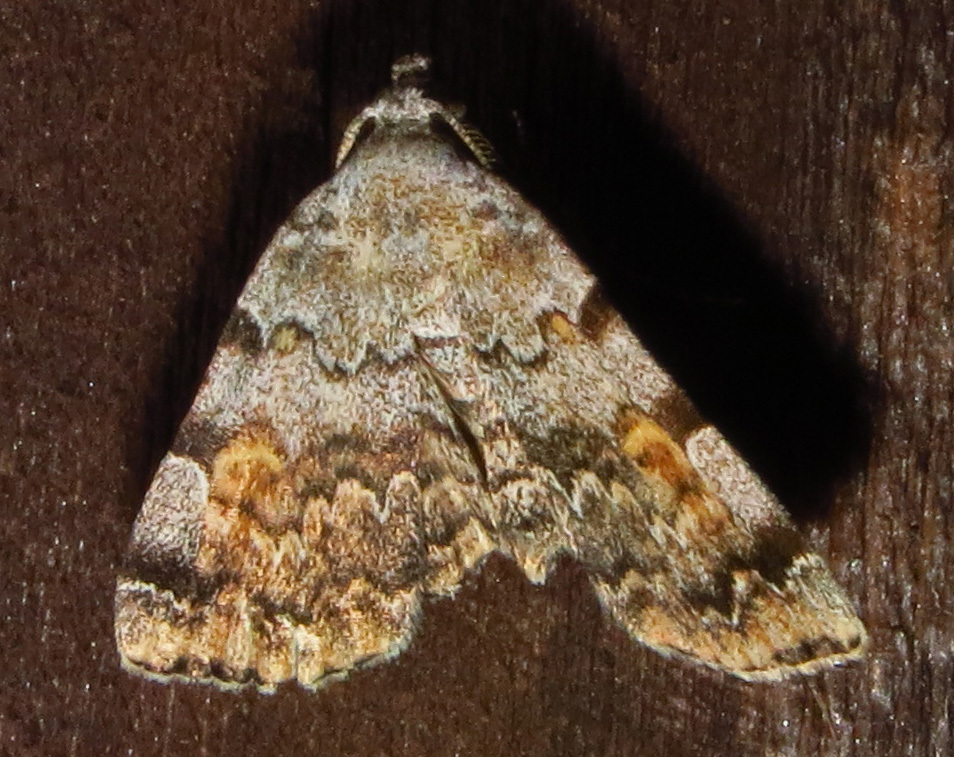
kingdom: Animalia
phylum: Arthropoda
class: Insecta
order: Lepidoptera
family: Erebidae
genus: Idia
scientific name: Idia americalis
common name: American idia moth
